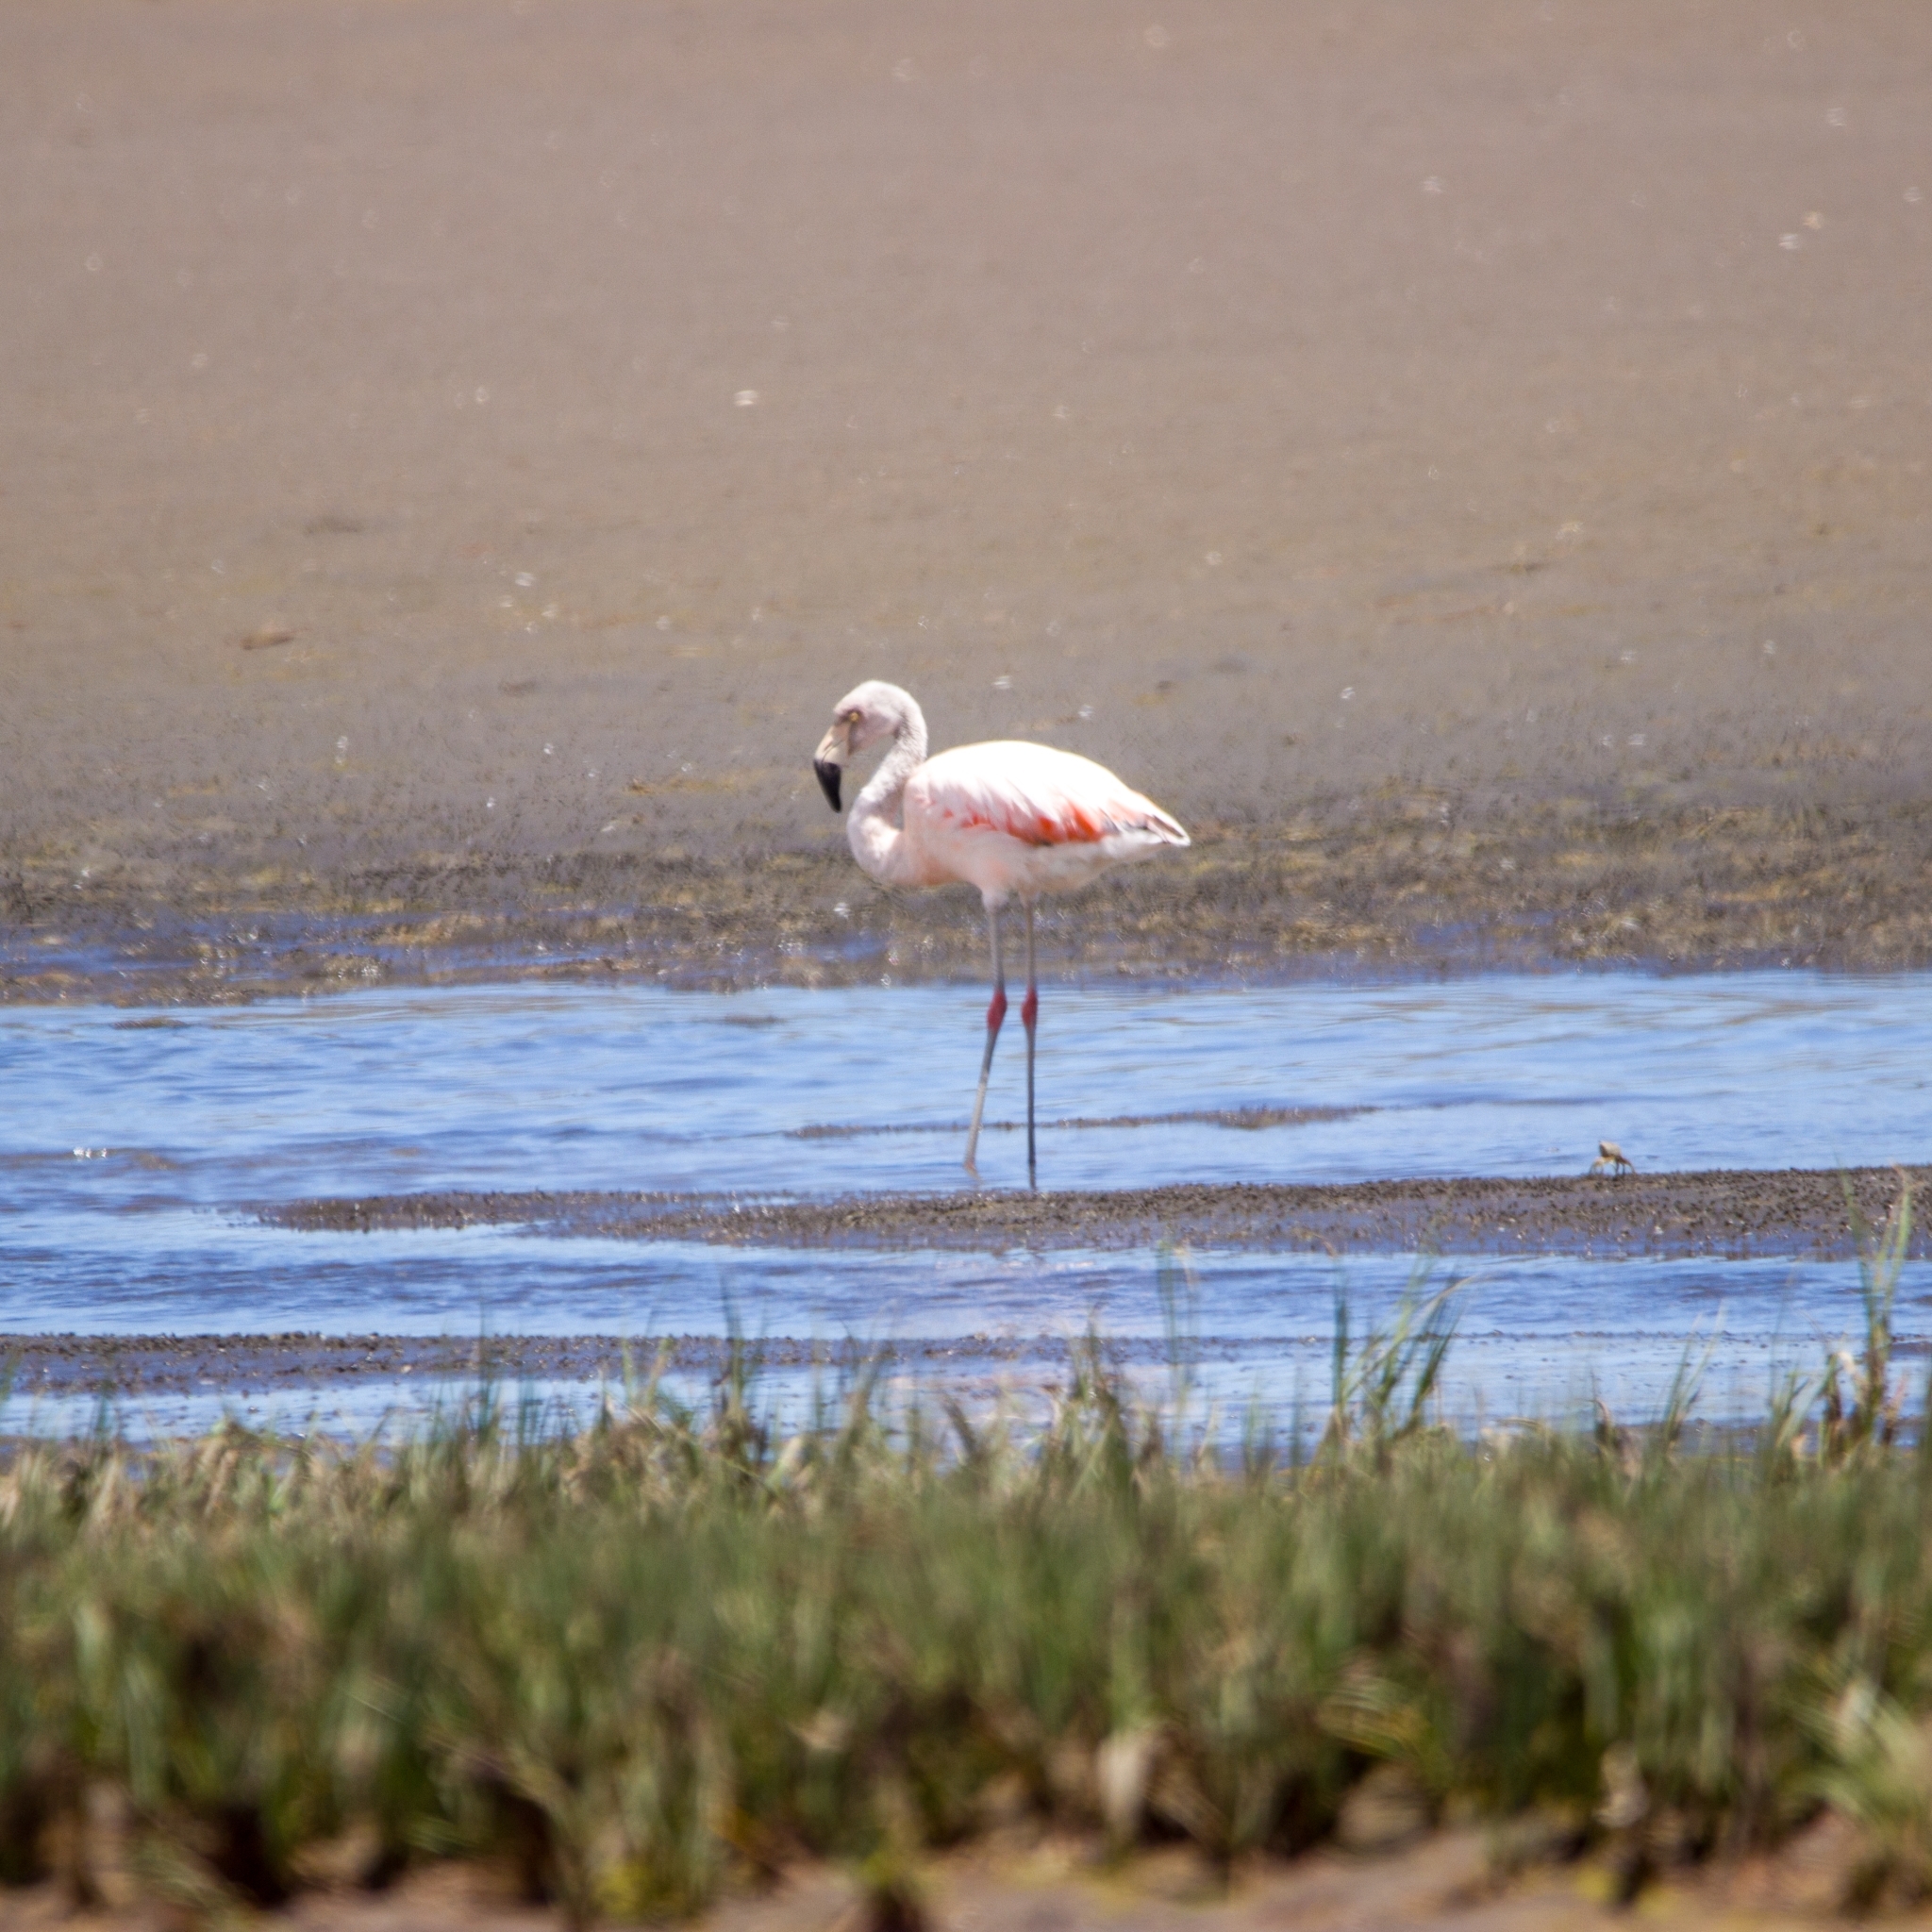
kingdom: Animalia
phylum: Chordata
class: Aves
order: Phoenicopteriformes
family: Phoenicopteridae
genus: Phoenicopterus
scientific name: Phoenicopterus chilensis
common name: Chilean flamingo
